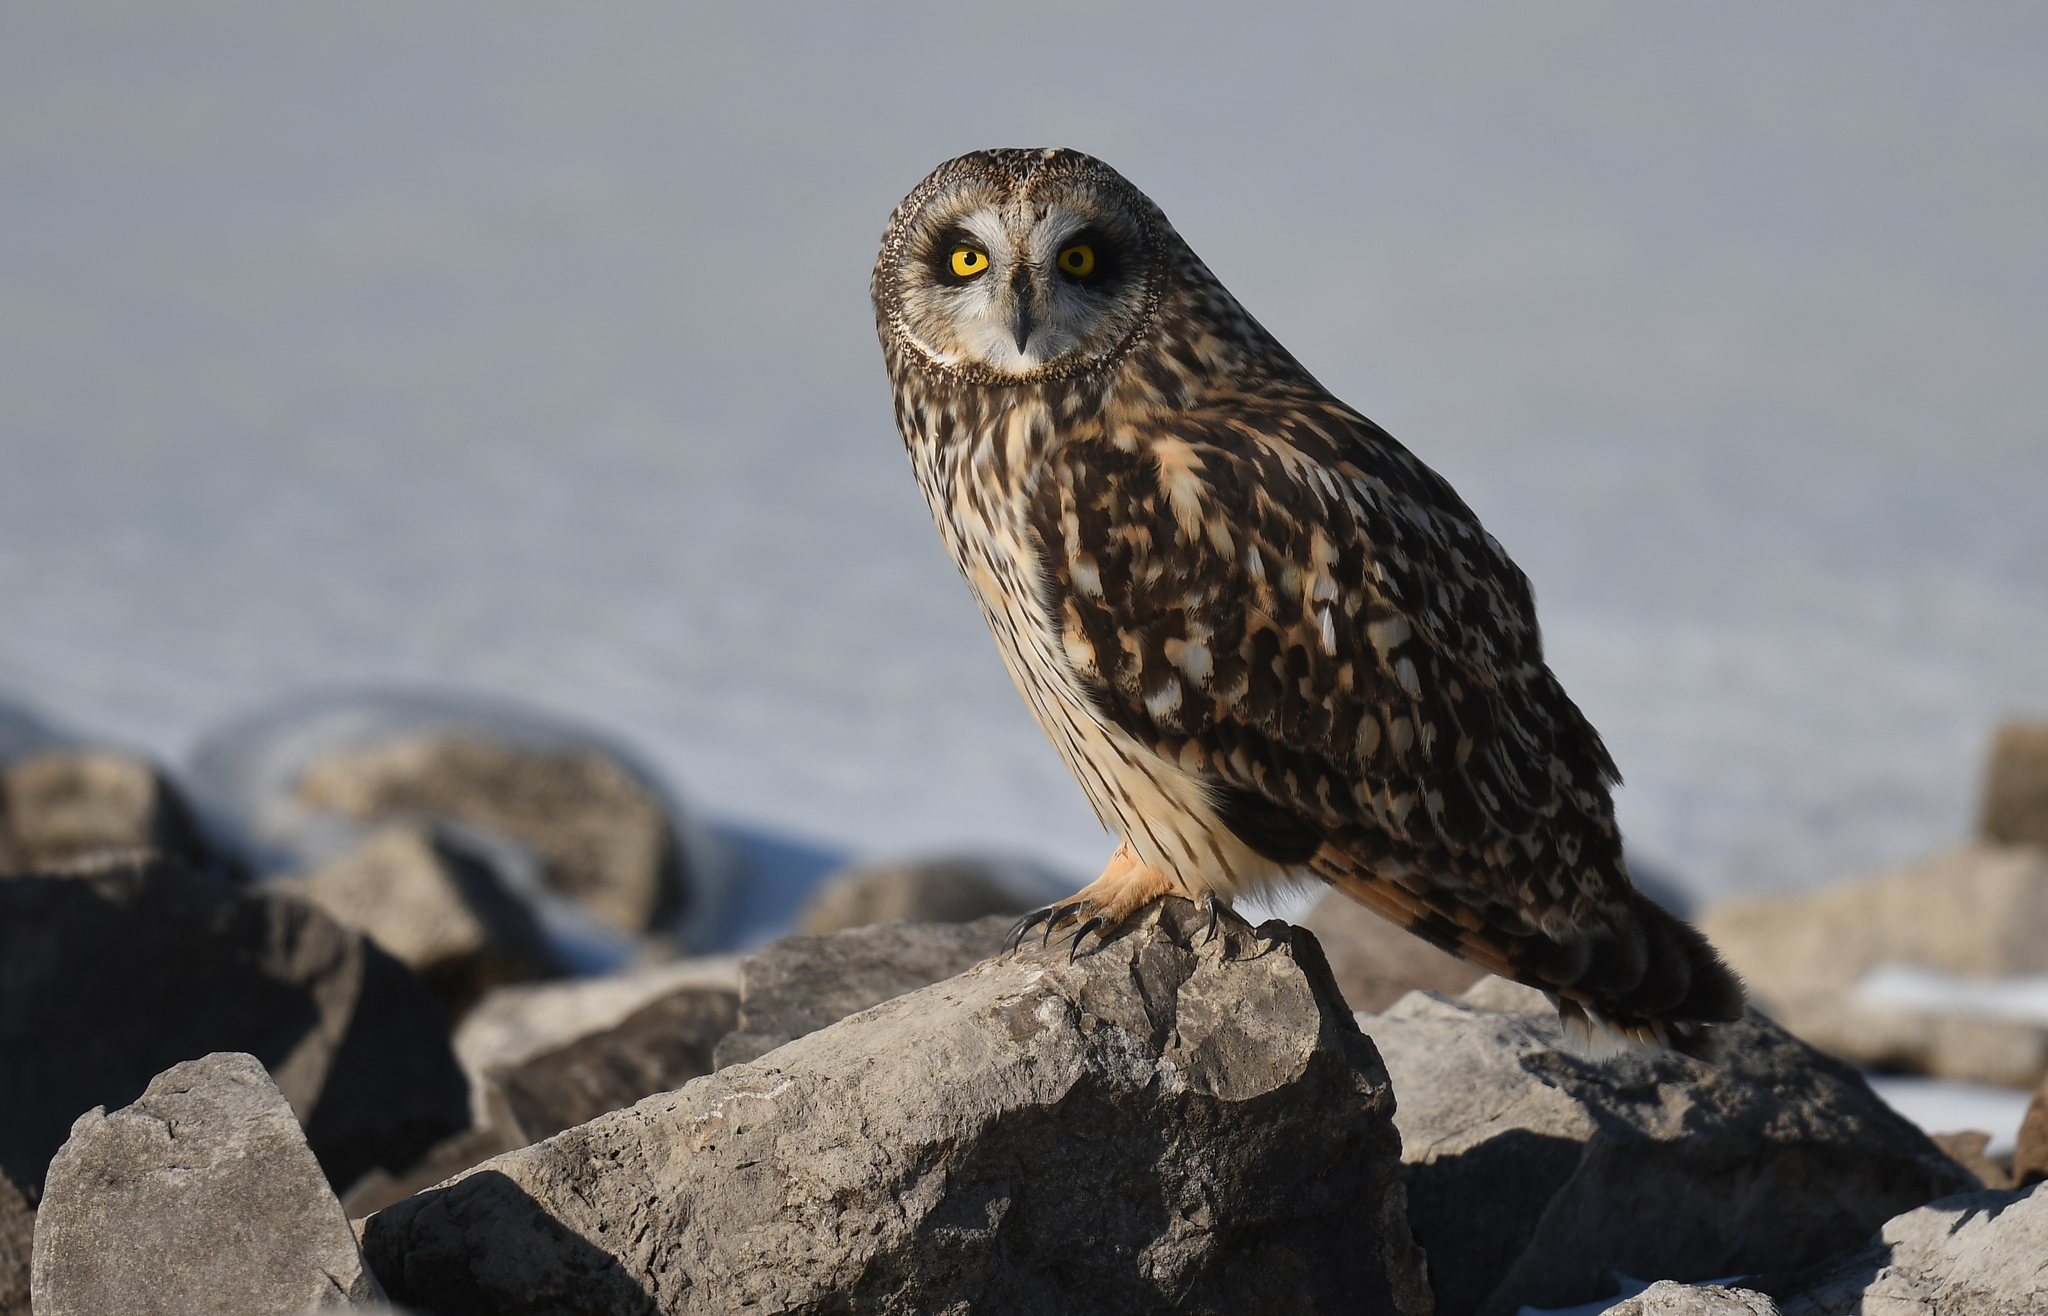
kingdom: Animalia
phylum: Chordata
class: Aves
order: Strigiformes
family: Strigidae
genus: Asio
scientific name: Asio flammeus
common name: Short-eared owl
